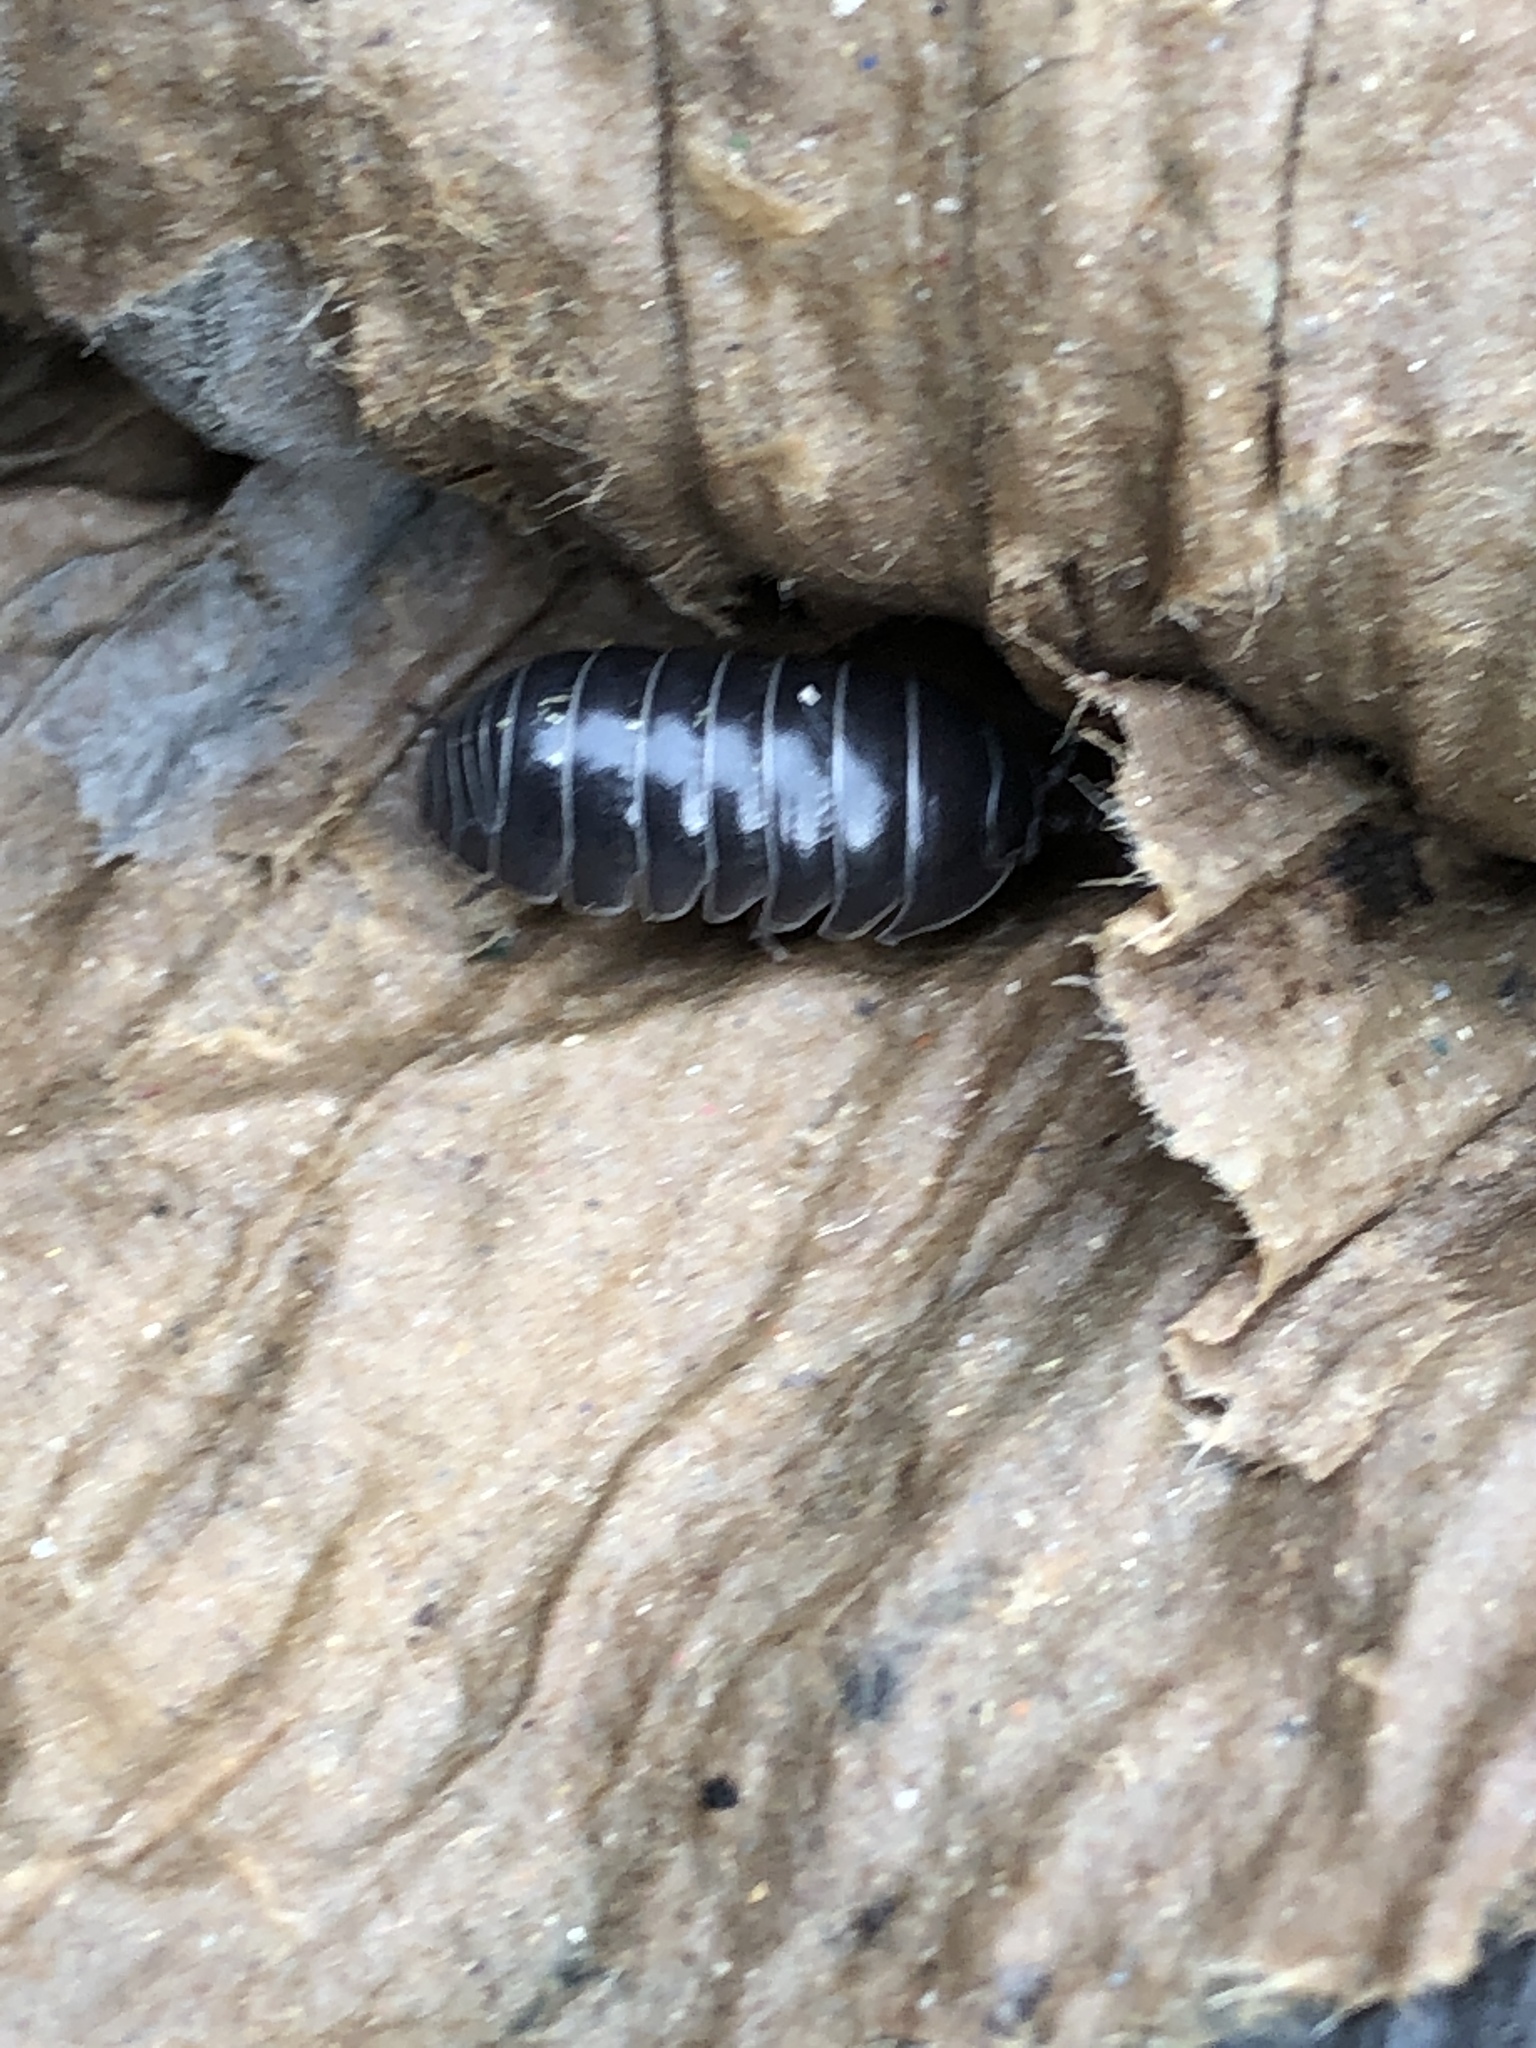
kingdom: Animalia
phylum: Arthropoda
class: Malacostraca
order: Isopoda
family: Armadillidiidae
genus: Armadillidium
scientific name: Armadillidium vulgare
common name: Common pill woodlouse
